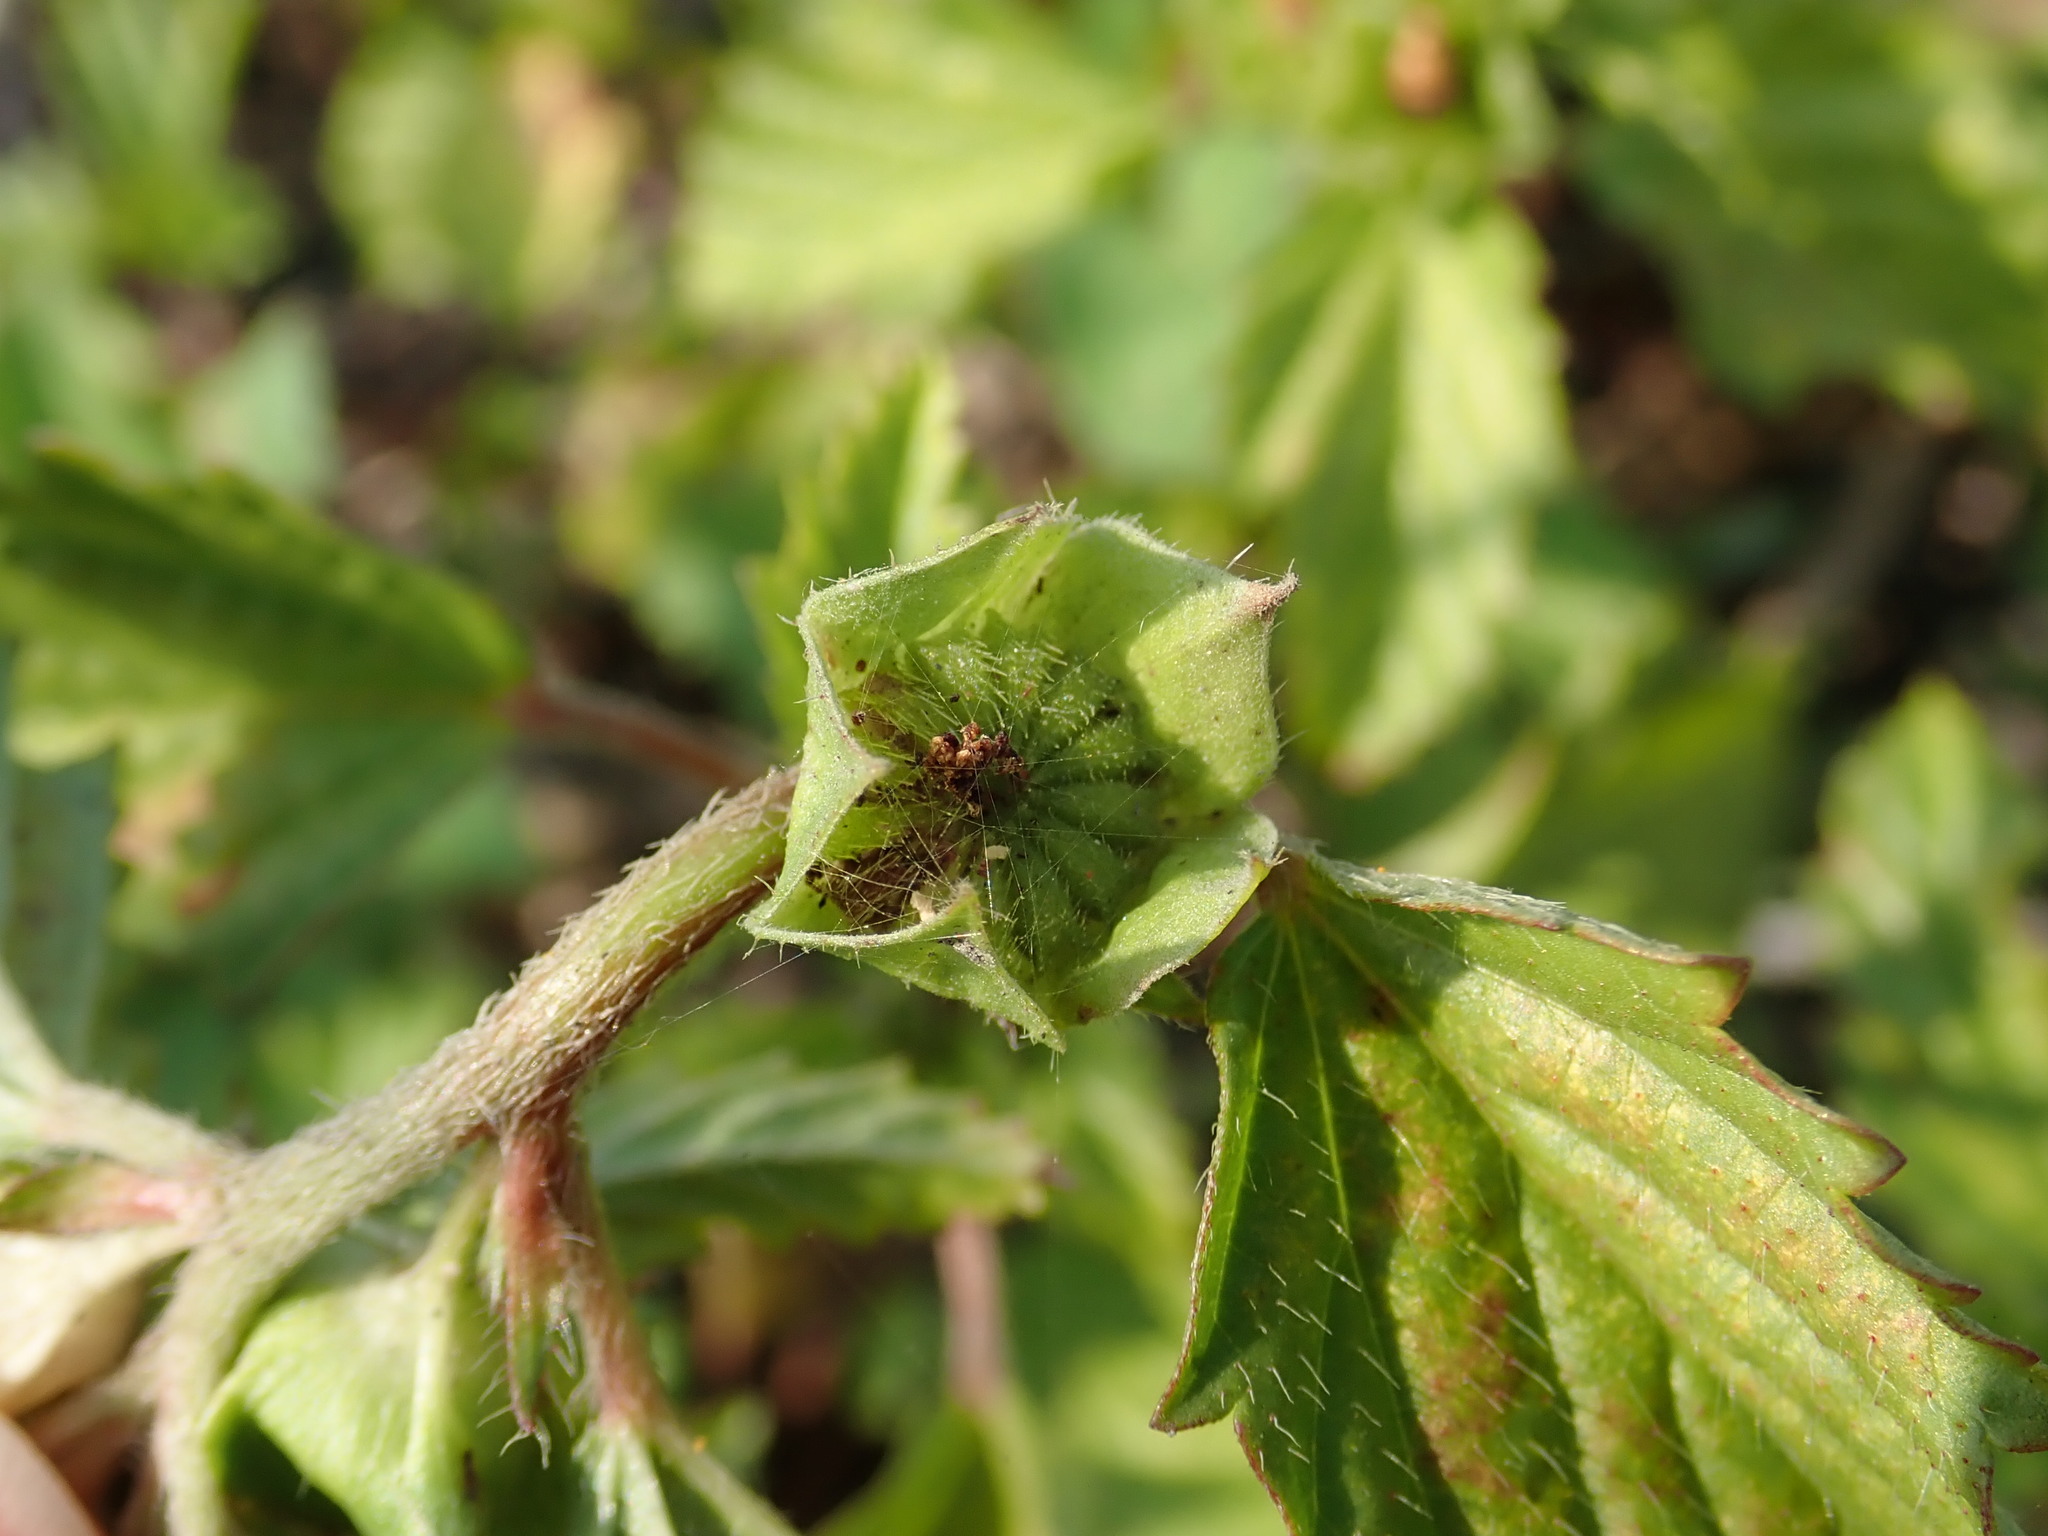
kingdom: Plantae
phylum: Tracheophyta
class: Magnoliopsida
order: Malvales
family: Malvaceae
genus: Malvastrum
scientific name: Malvastrum coromandelianum
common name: Threelobe false mallow
